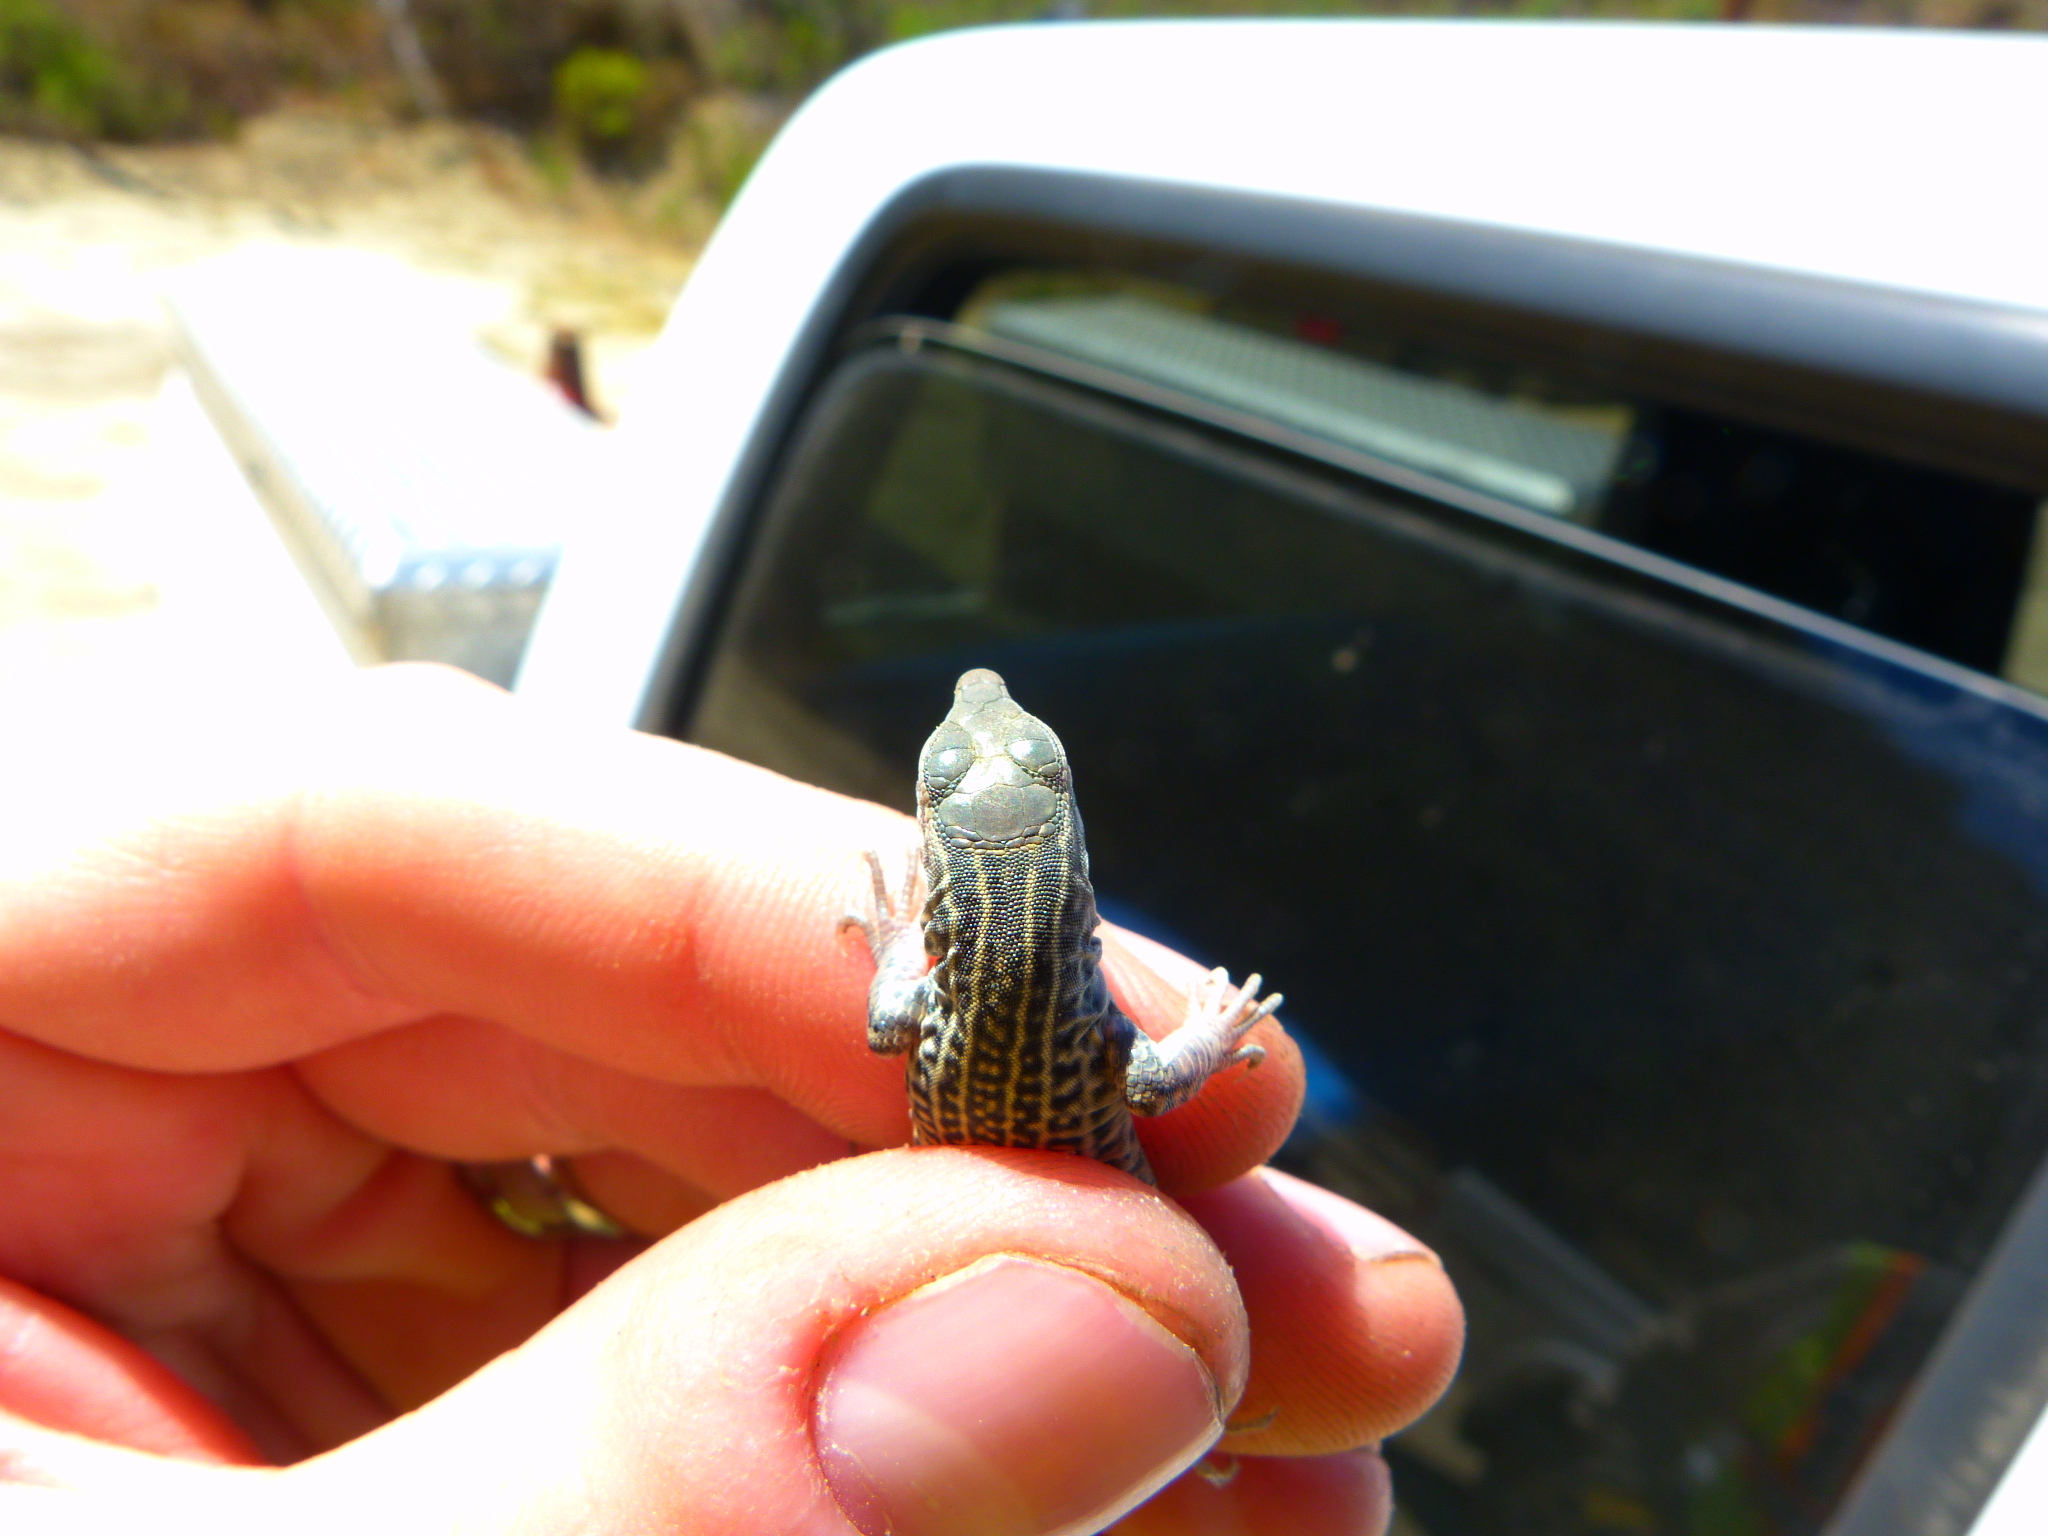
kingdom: Animalia
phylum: Chordata
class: Squamata
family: Teiidae
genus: Aspidoscelis
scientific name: Aspidoscelis tigris
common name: Tiger whiptail
